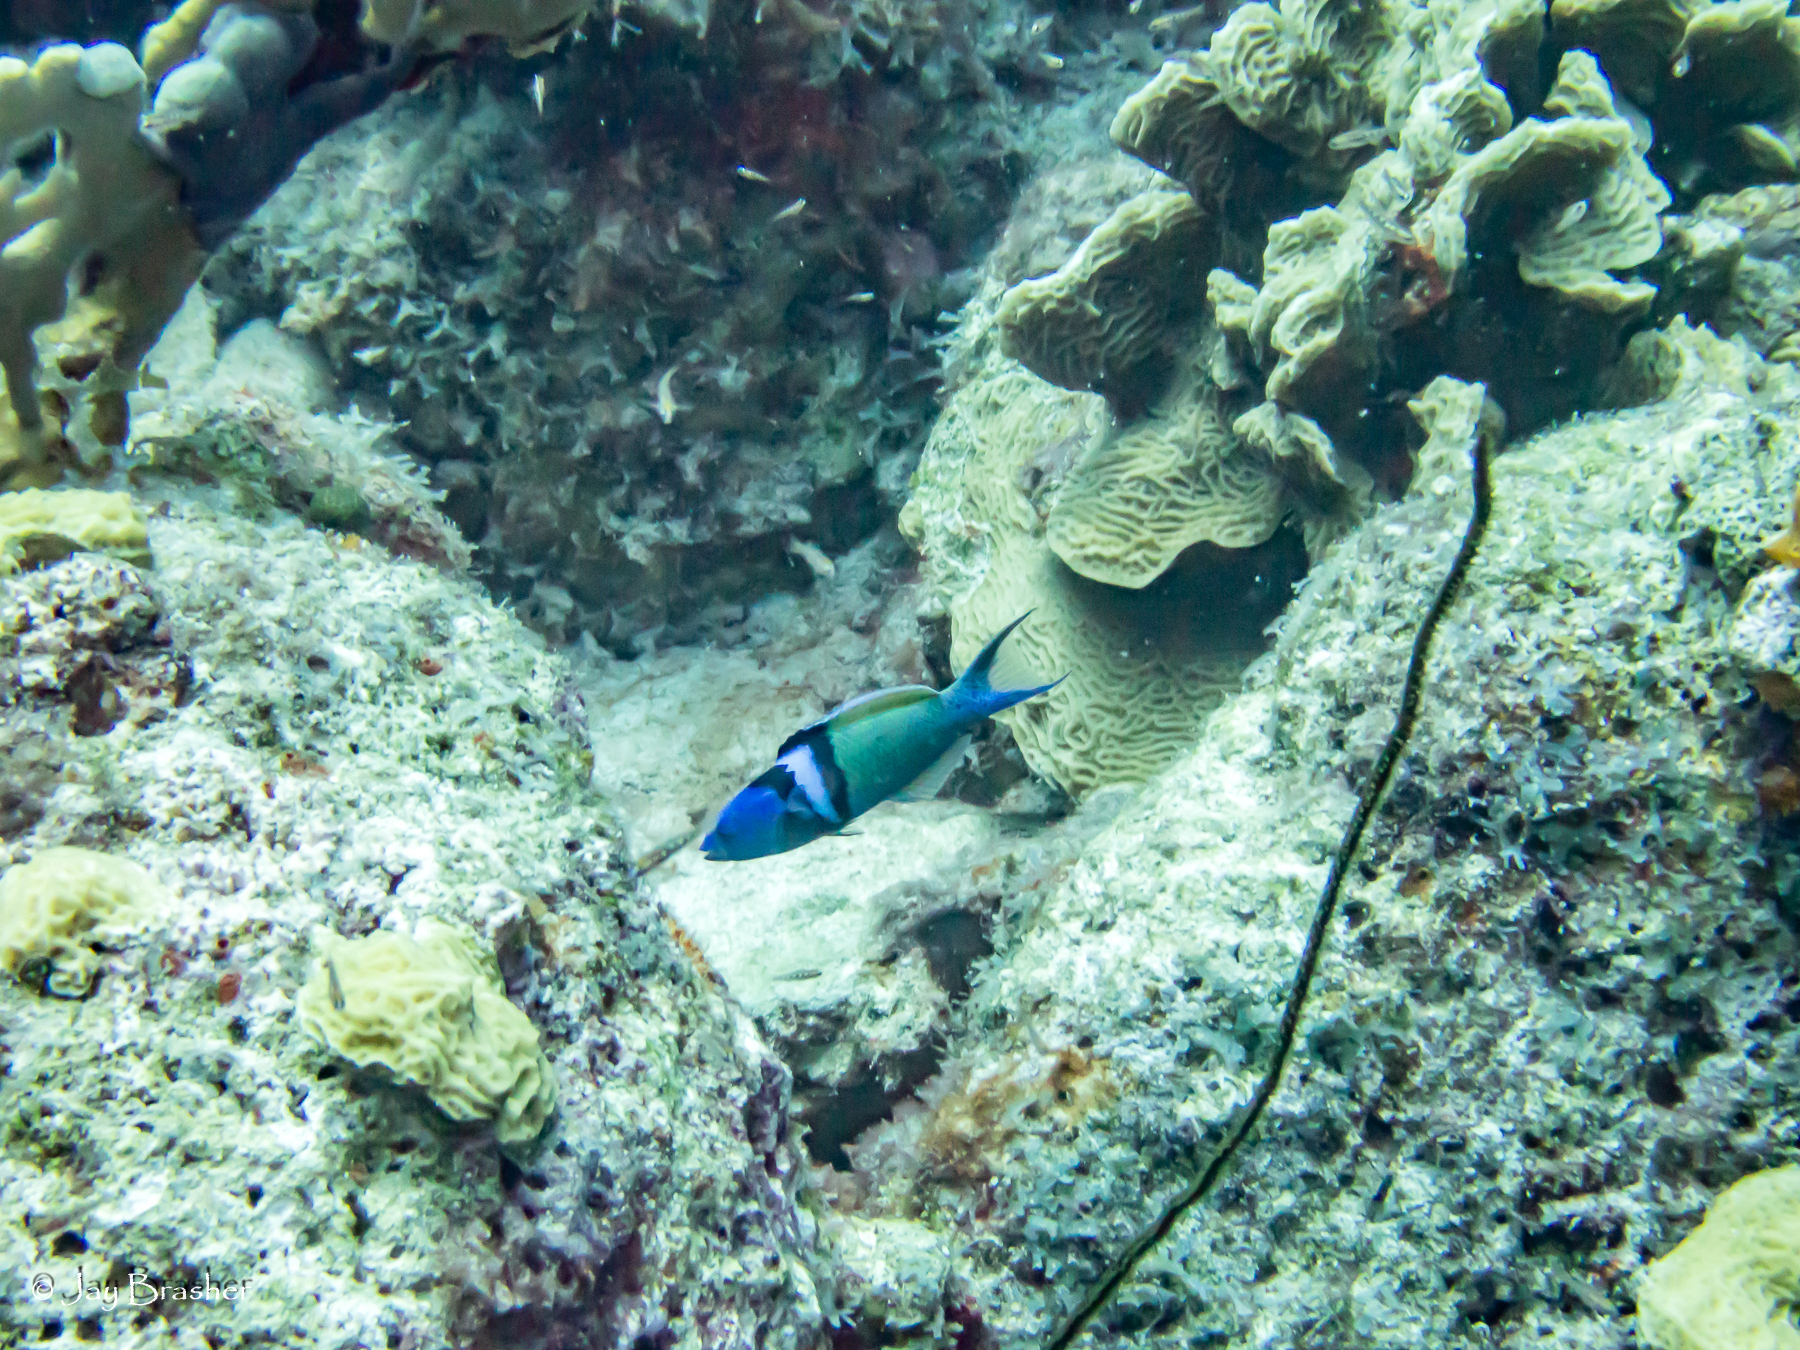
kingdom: Animalia
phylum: Chordata
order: Perciformes
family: Labridae
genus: Thalassoma
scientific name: Thalassoma bifasciatum
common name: Bluehead wrasse
